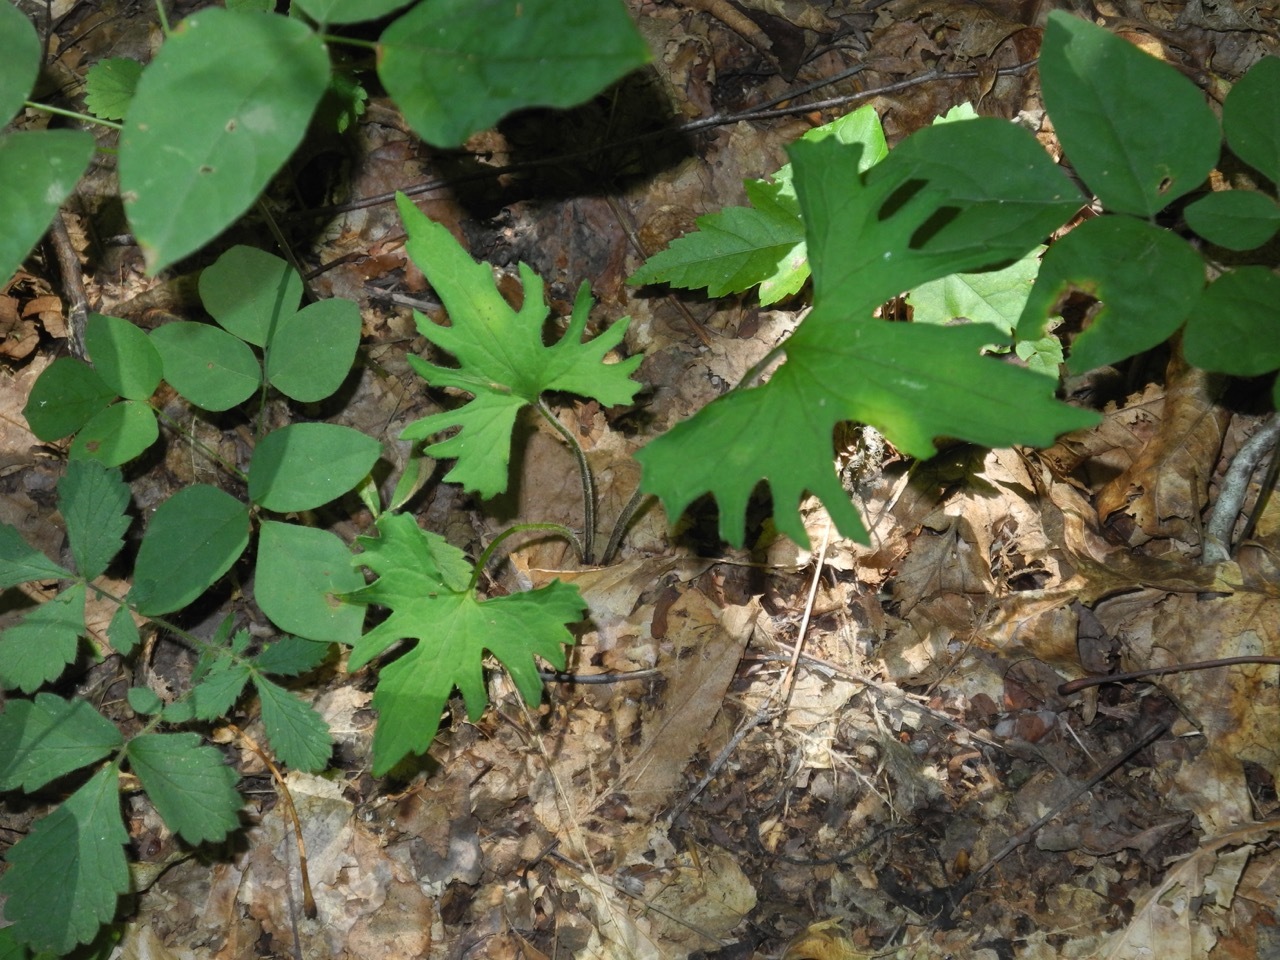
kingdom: Plantae
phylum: Tracheophyta
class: Magnoliopsida
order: Malpighiales
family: Violaceae
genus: Viola
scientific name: Viola palmata
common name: Early blue violet
